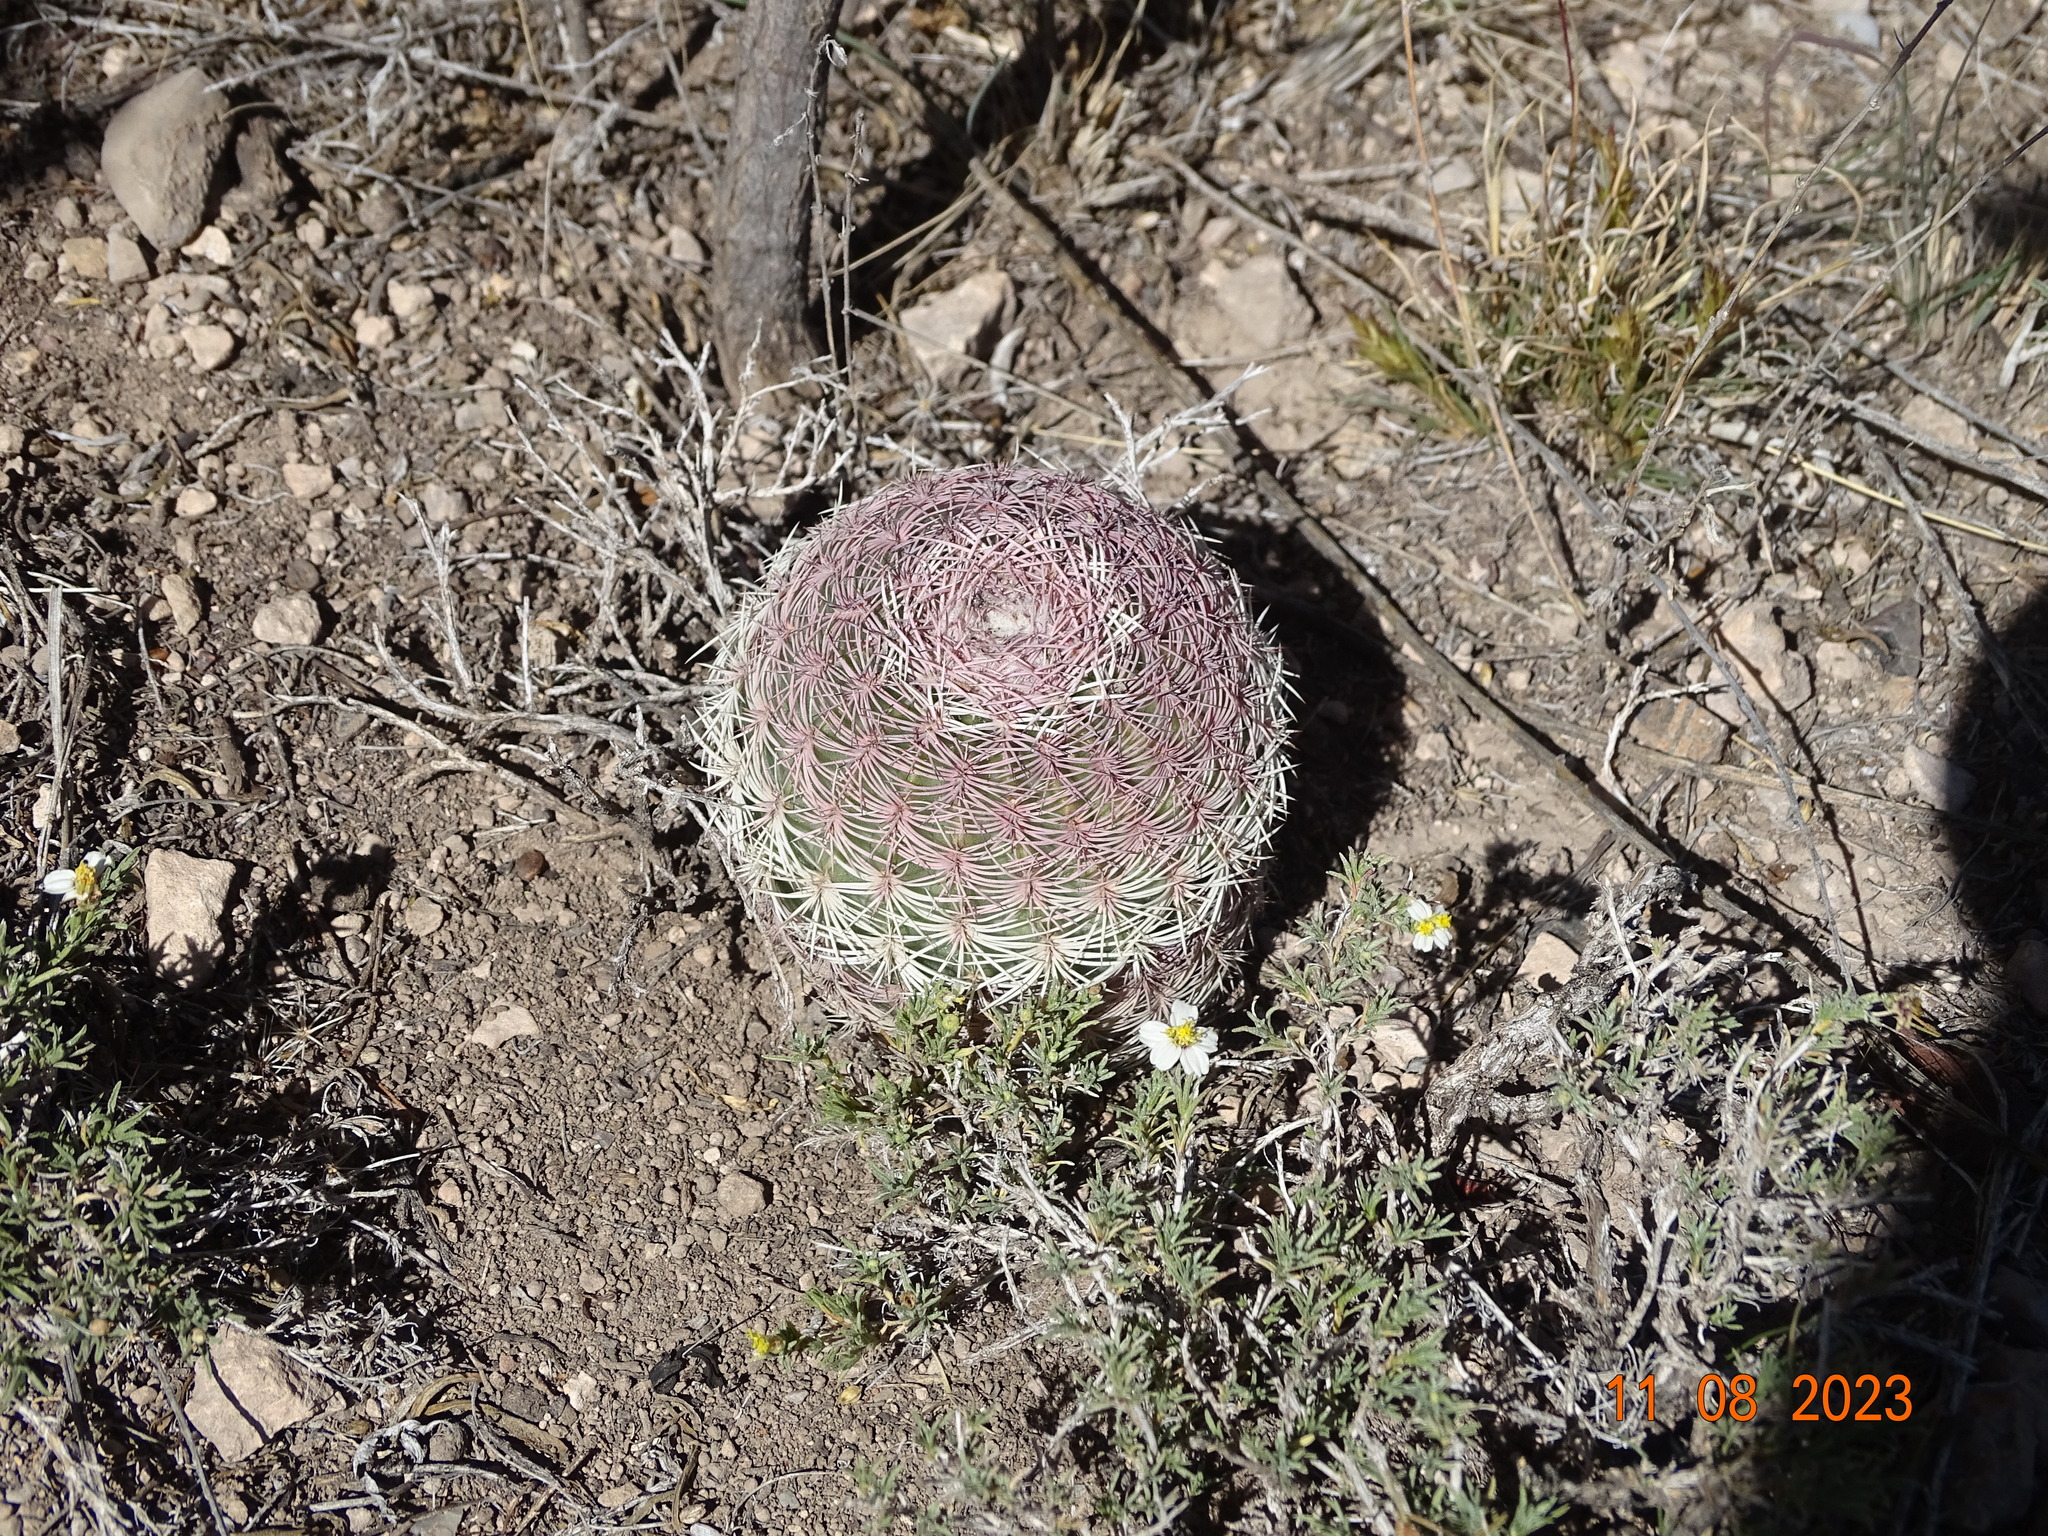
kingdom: Plantae
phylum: Tracheophyta
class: Magnoliopsida
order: Caryophyllales
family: Cactaceae
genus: Echinocereus
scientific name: Echinocereus pectinatus
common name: Rainbow cactus
